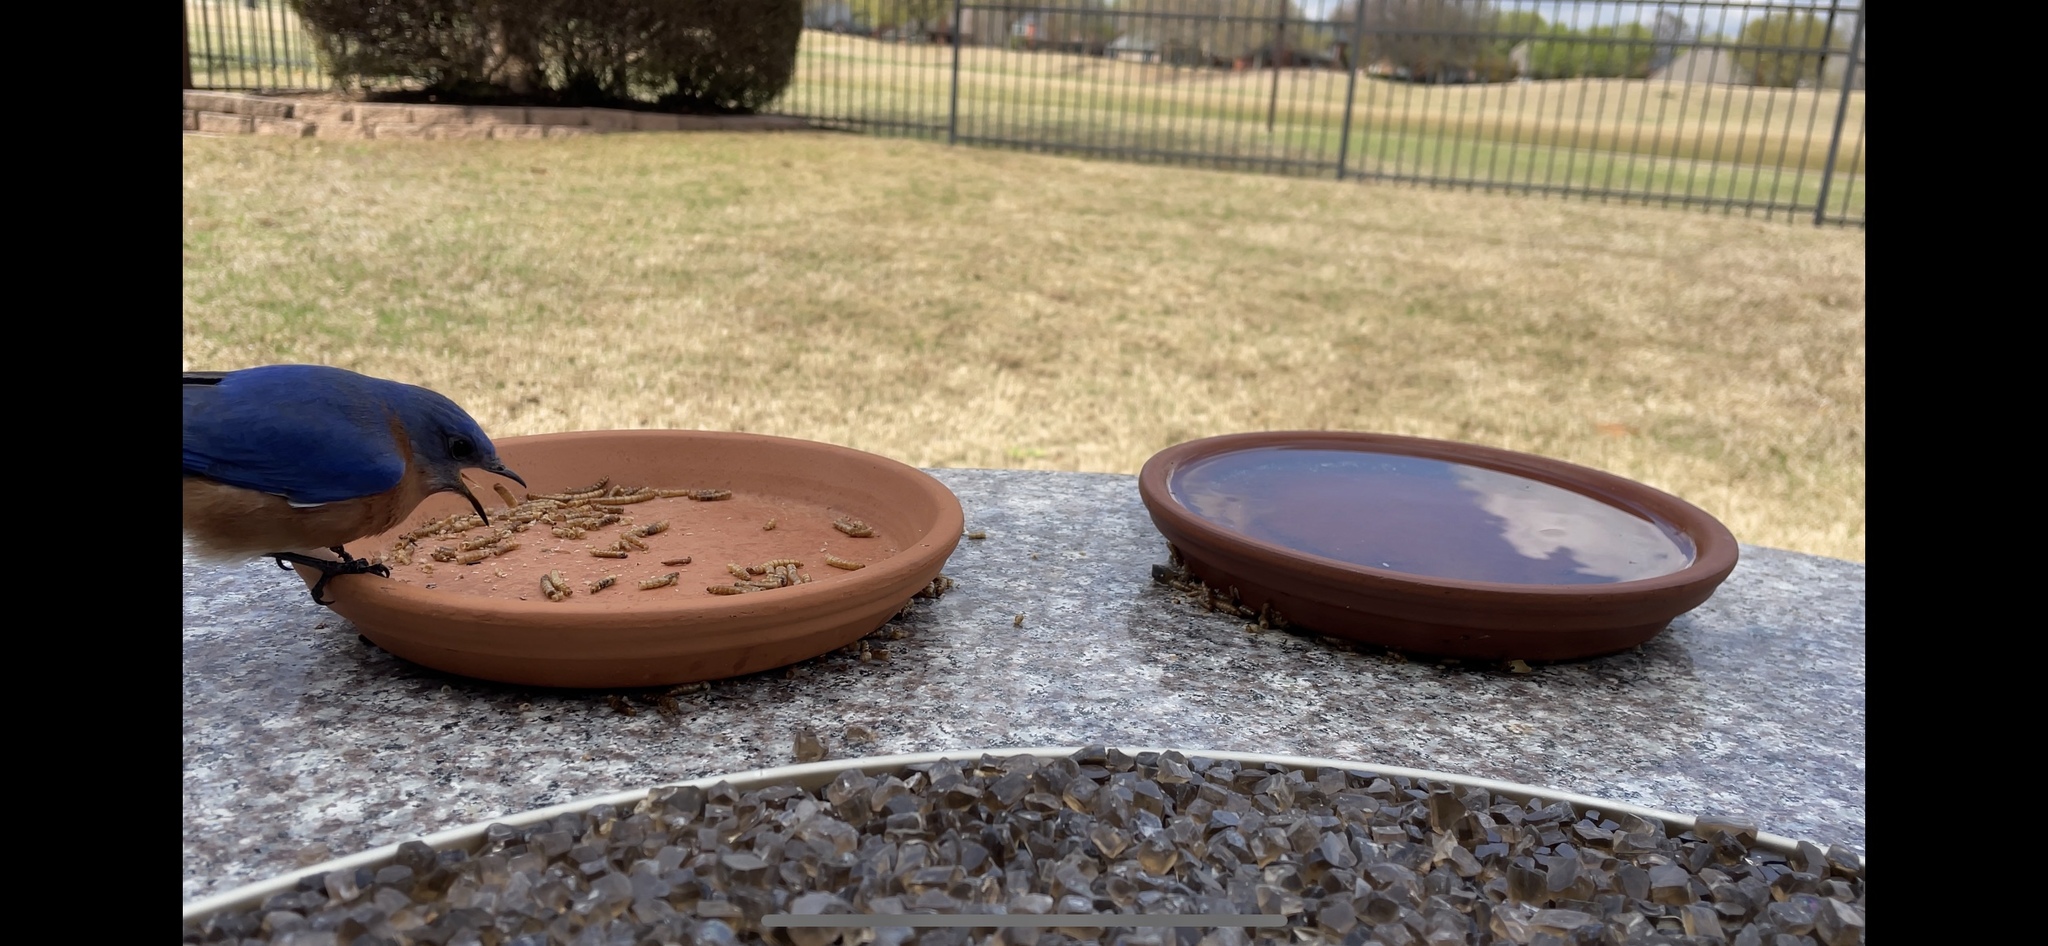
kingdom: Animalia
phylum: Chordata
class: Aves
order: Passeriformes
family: Turdidae
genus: Sialia
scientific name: Sialia sialis
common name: Eastern bluebird
